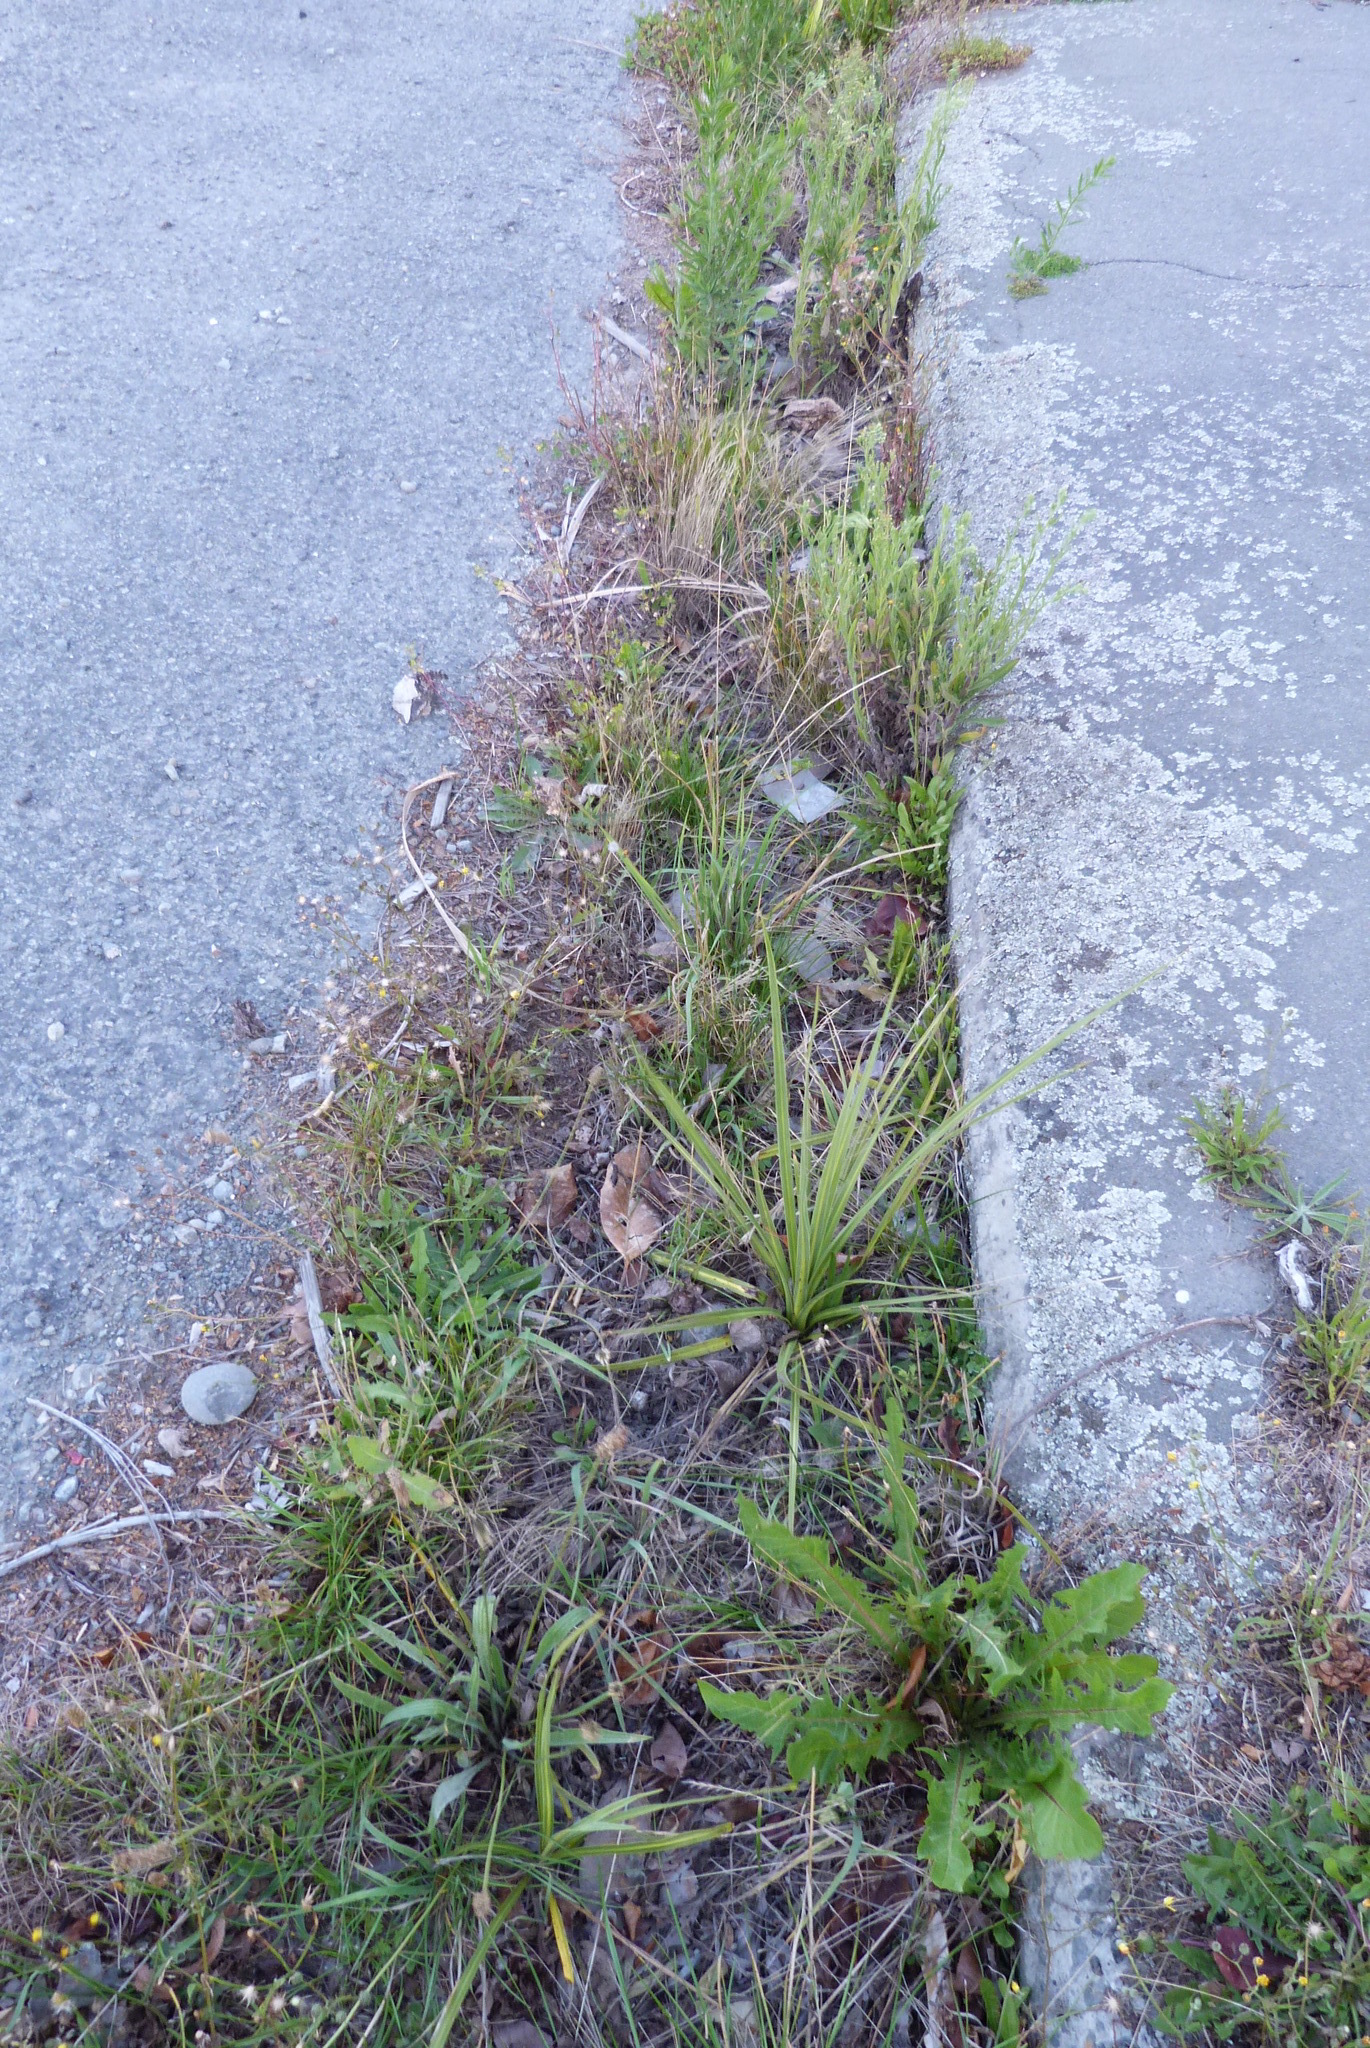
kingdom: Plantae
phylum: Tracheophyta
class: Liliopsida
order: Asparagales
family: Asparagaceae
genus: Cordyline
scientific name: Cordyline australis
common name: Cabbage-palm
